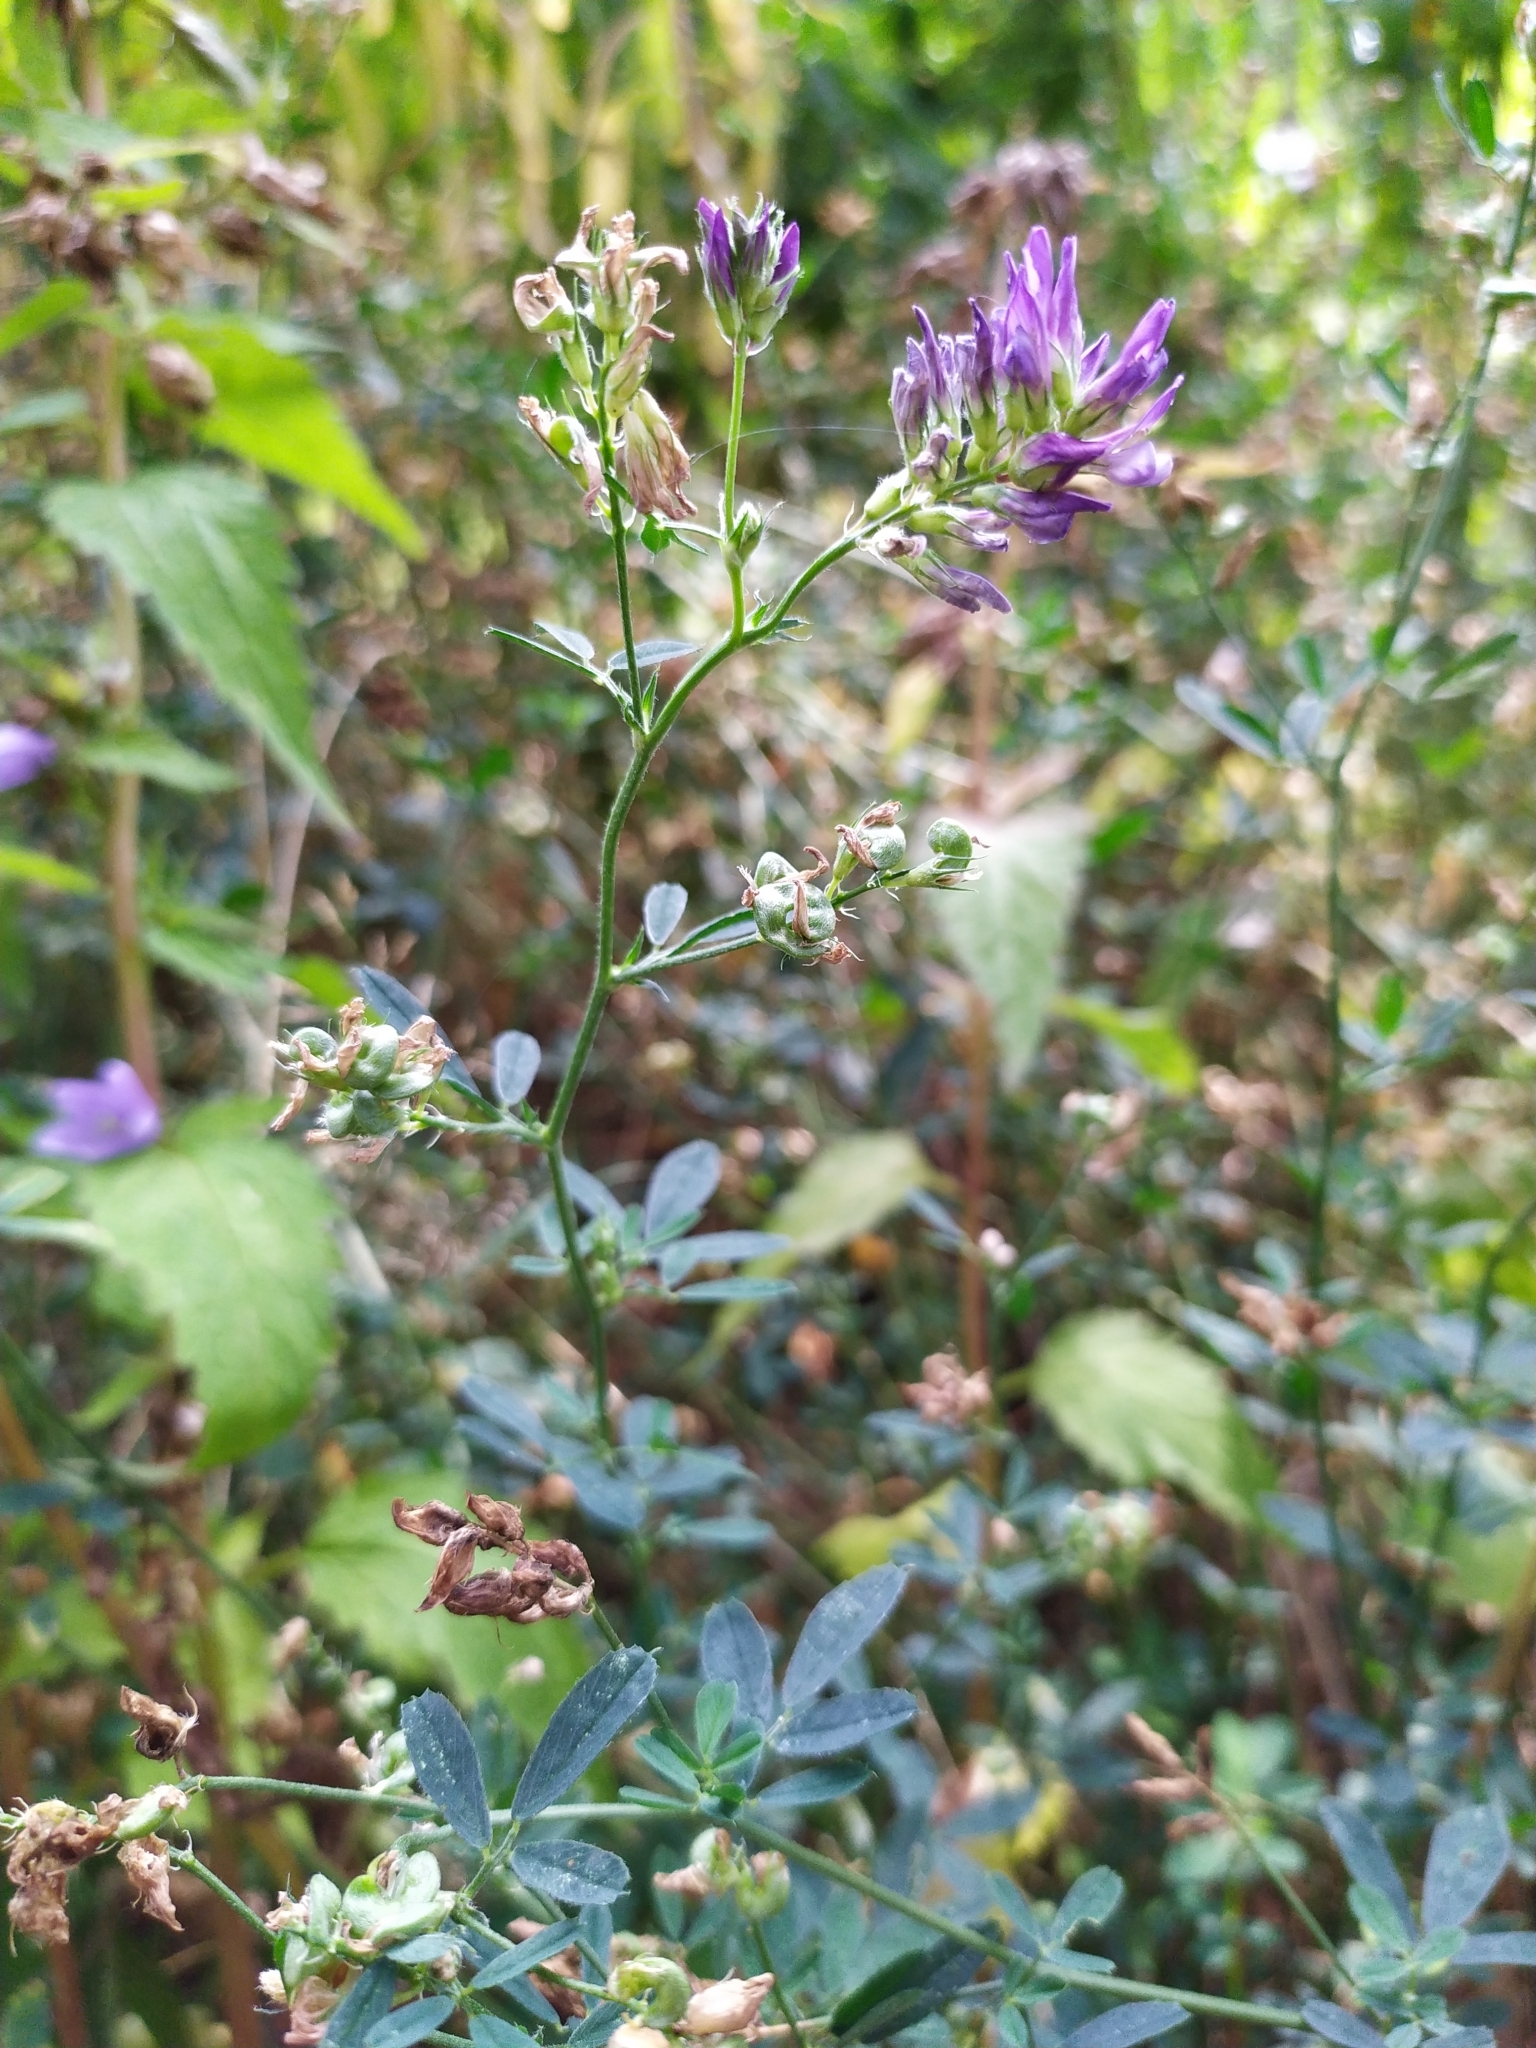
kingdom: Plantae
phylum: Tracheophyta
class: Magnoliopsida
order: Fabales
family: Fabaceae
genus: Medicago
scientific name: Medicago sativa
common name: Alfalfa
